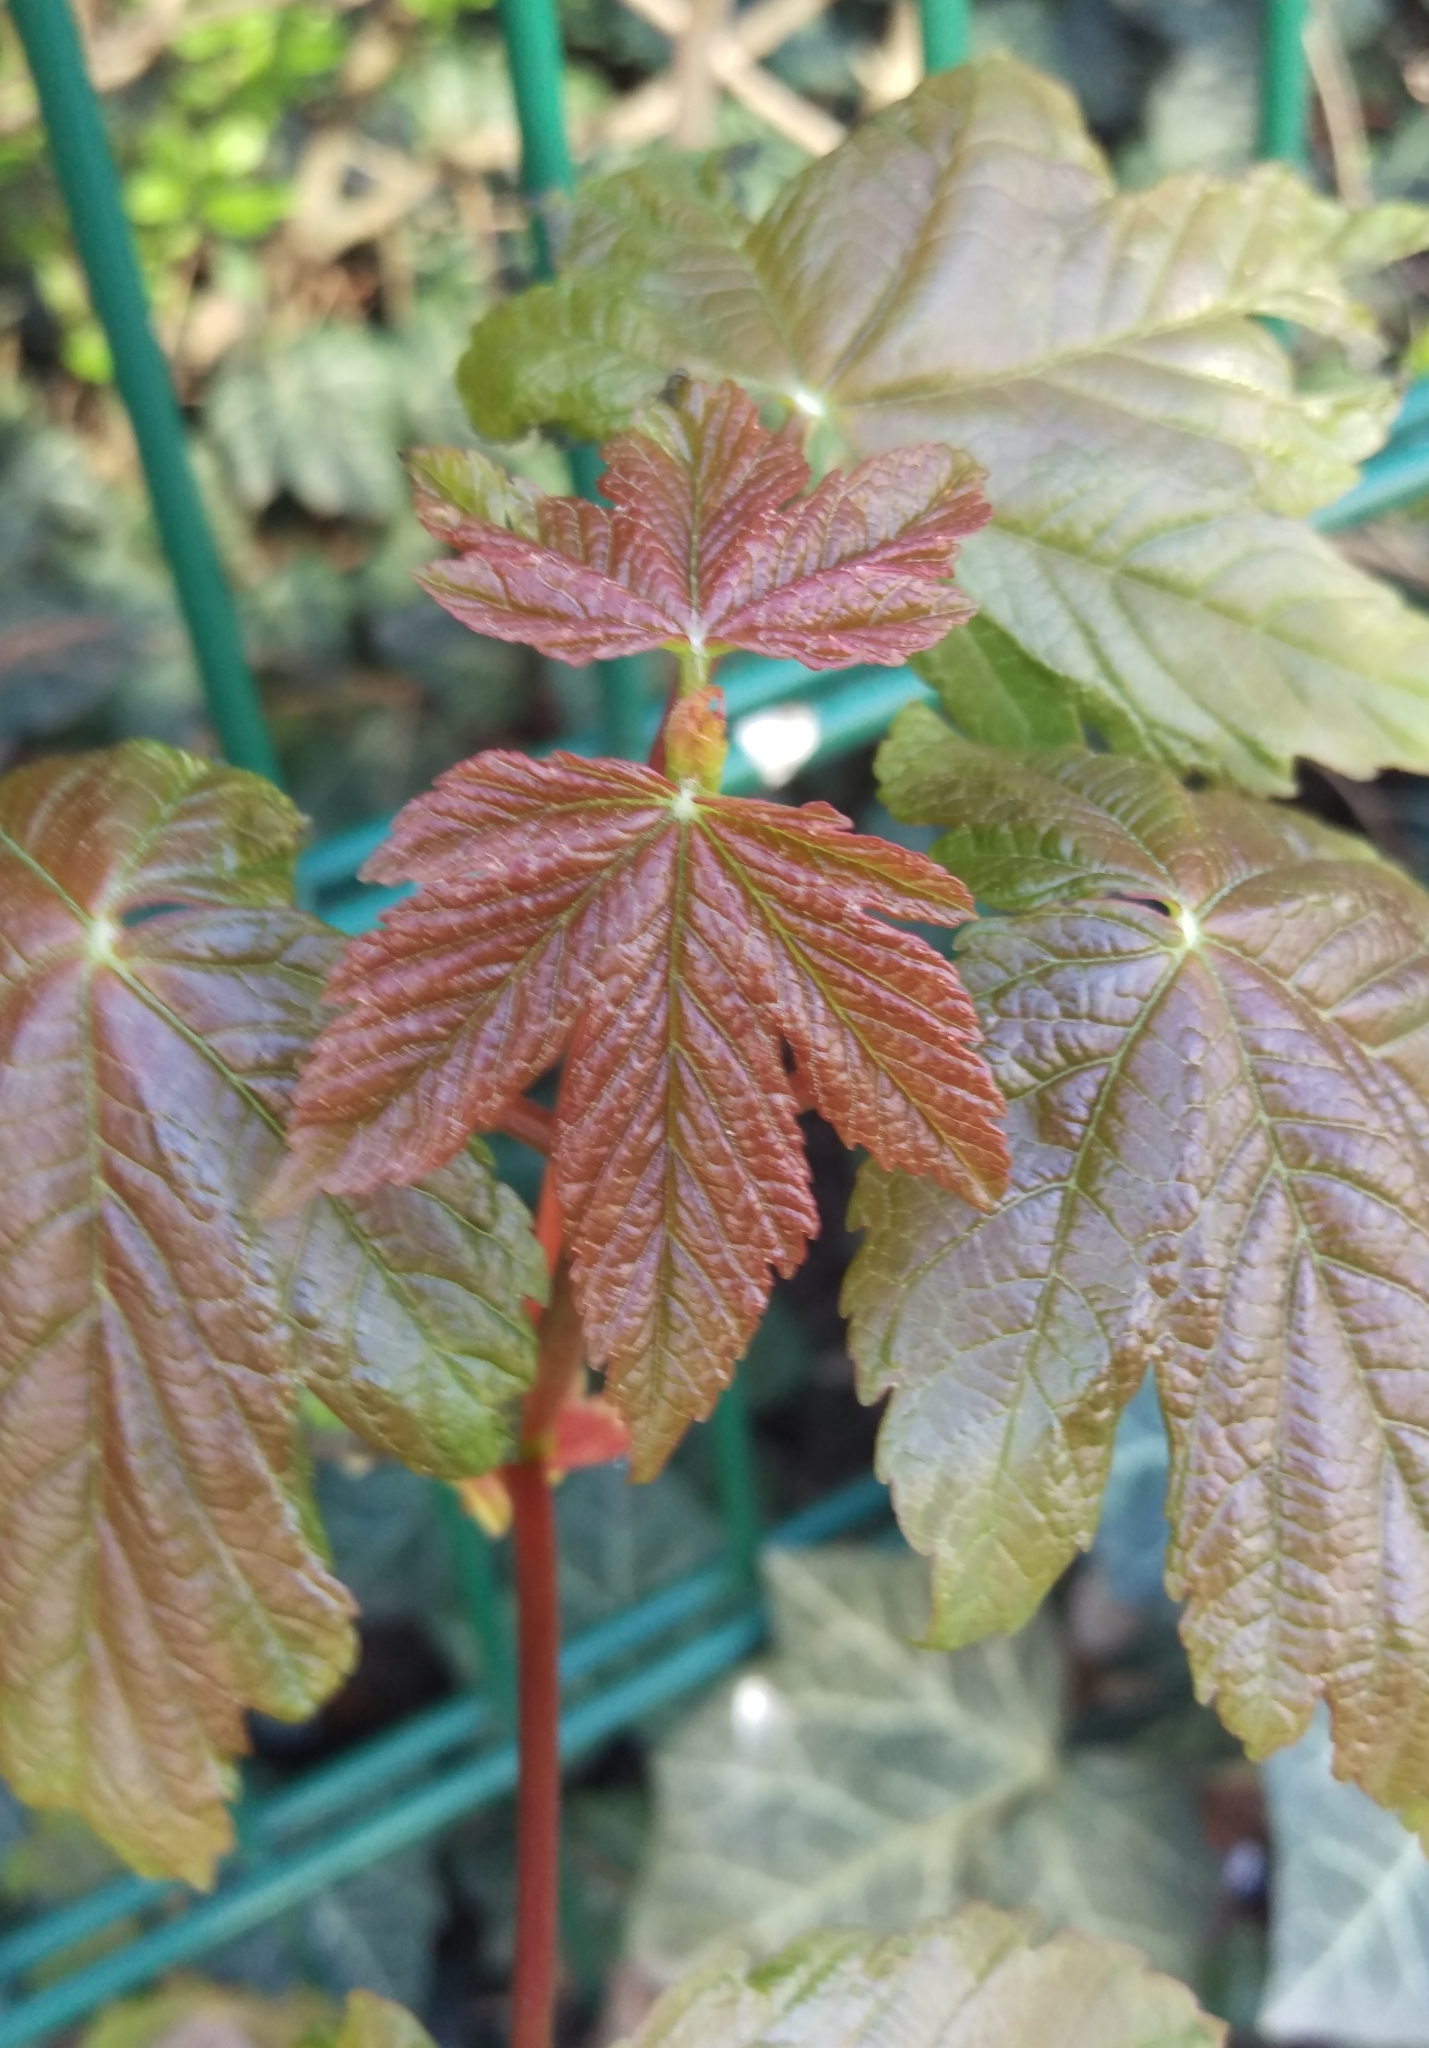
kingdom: Plantae
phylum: Tracheophyta
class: Magnoliopsida
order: Sapindales
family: Sapindaceae
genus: Acer
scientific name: Acer pseudoplatanus
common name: Sycamore
